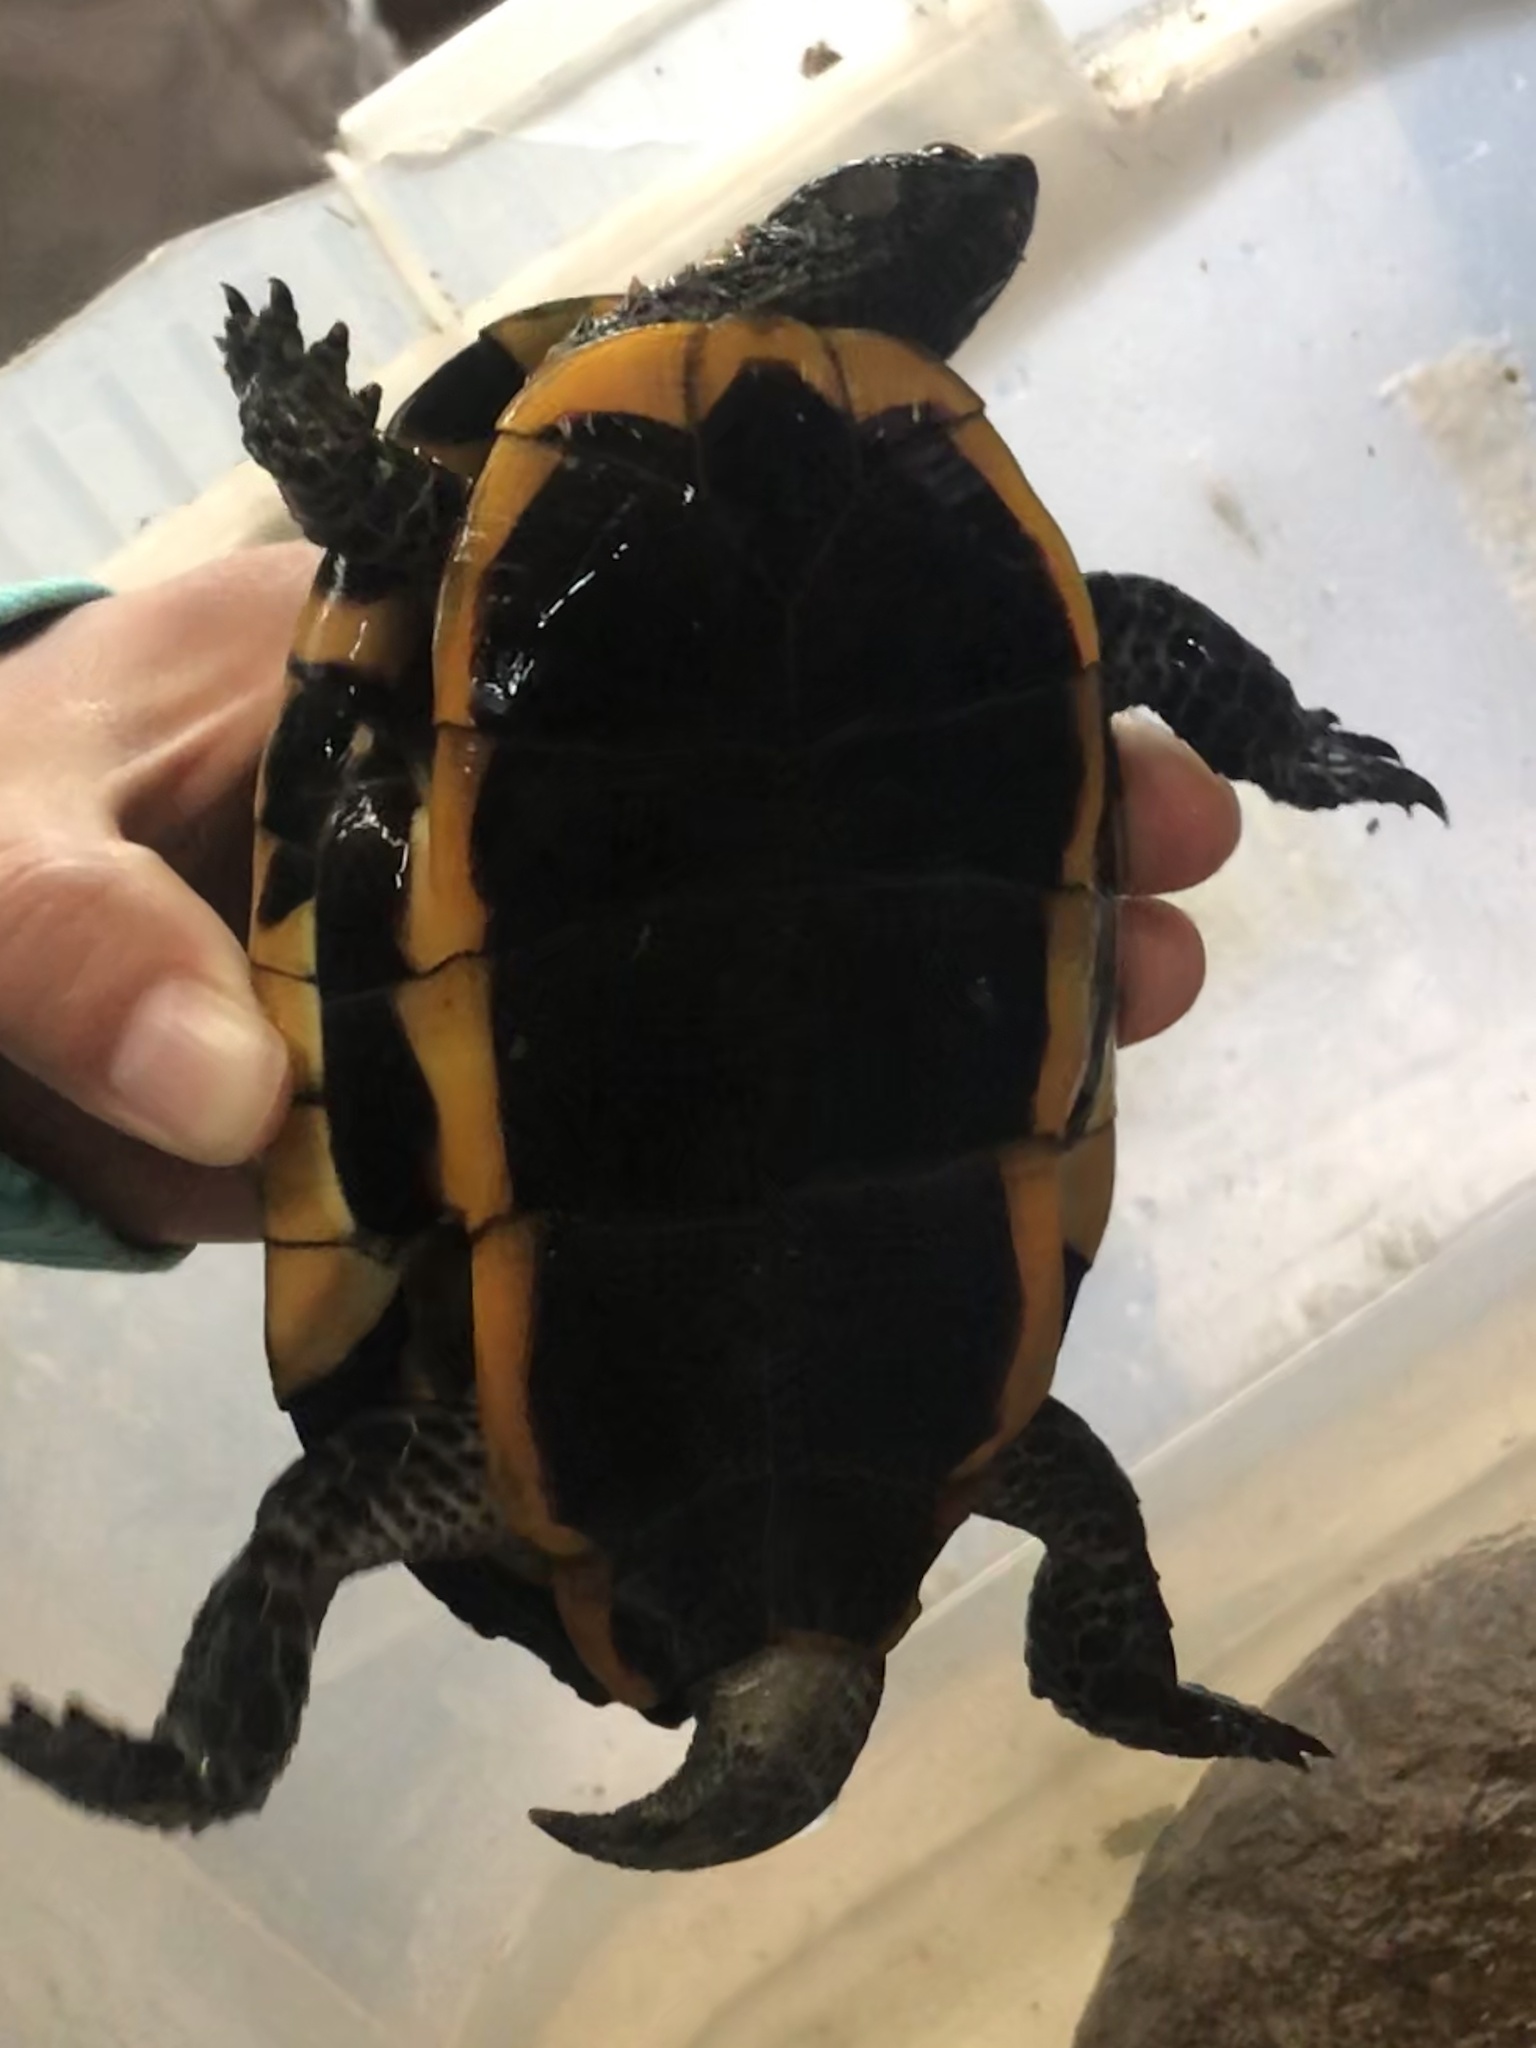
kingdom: Animalia
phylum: Chordata
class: Testudines
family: Chelidae
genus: Platemys
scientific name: Platemys platycephala
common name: Twistneck turtle
